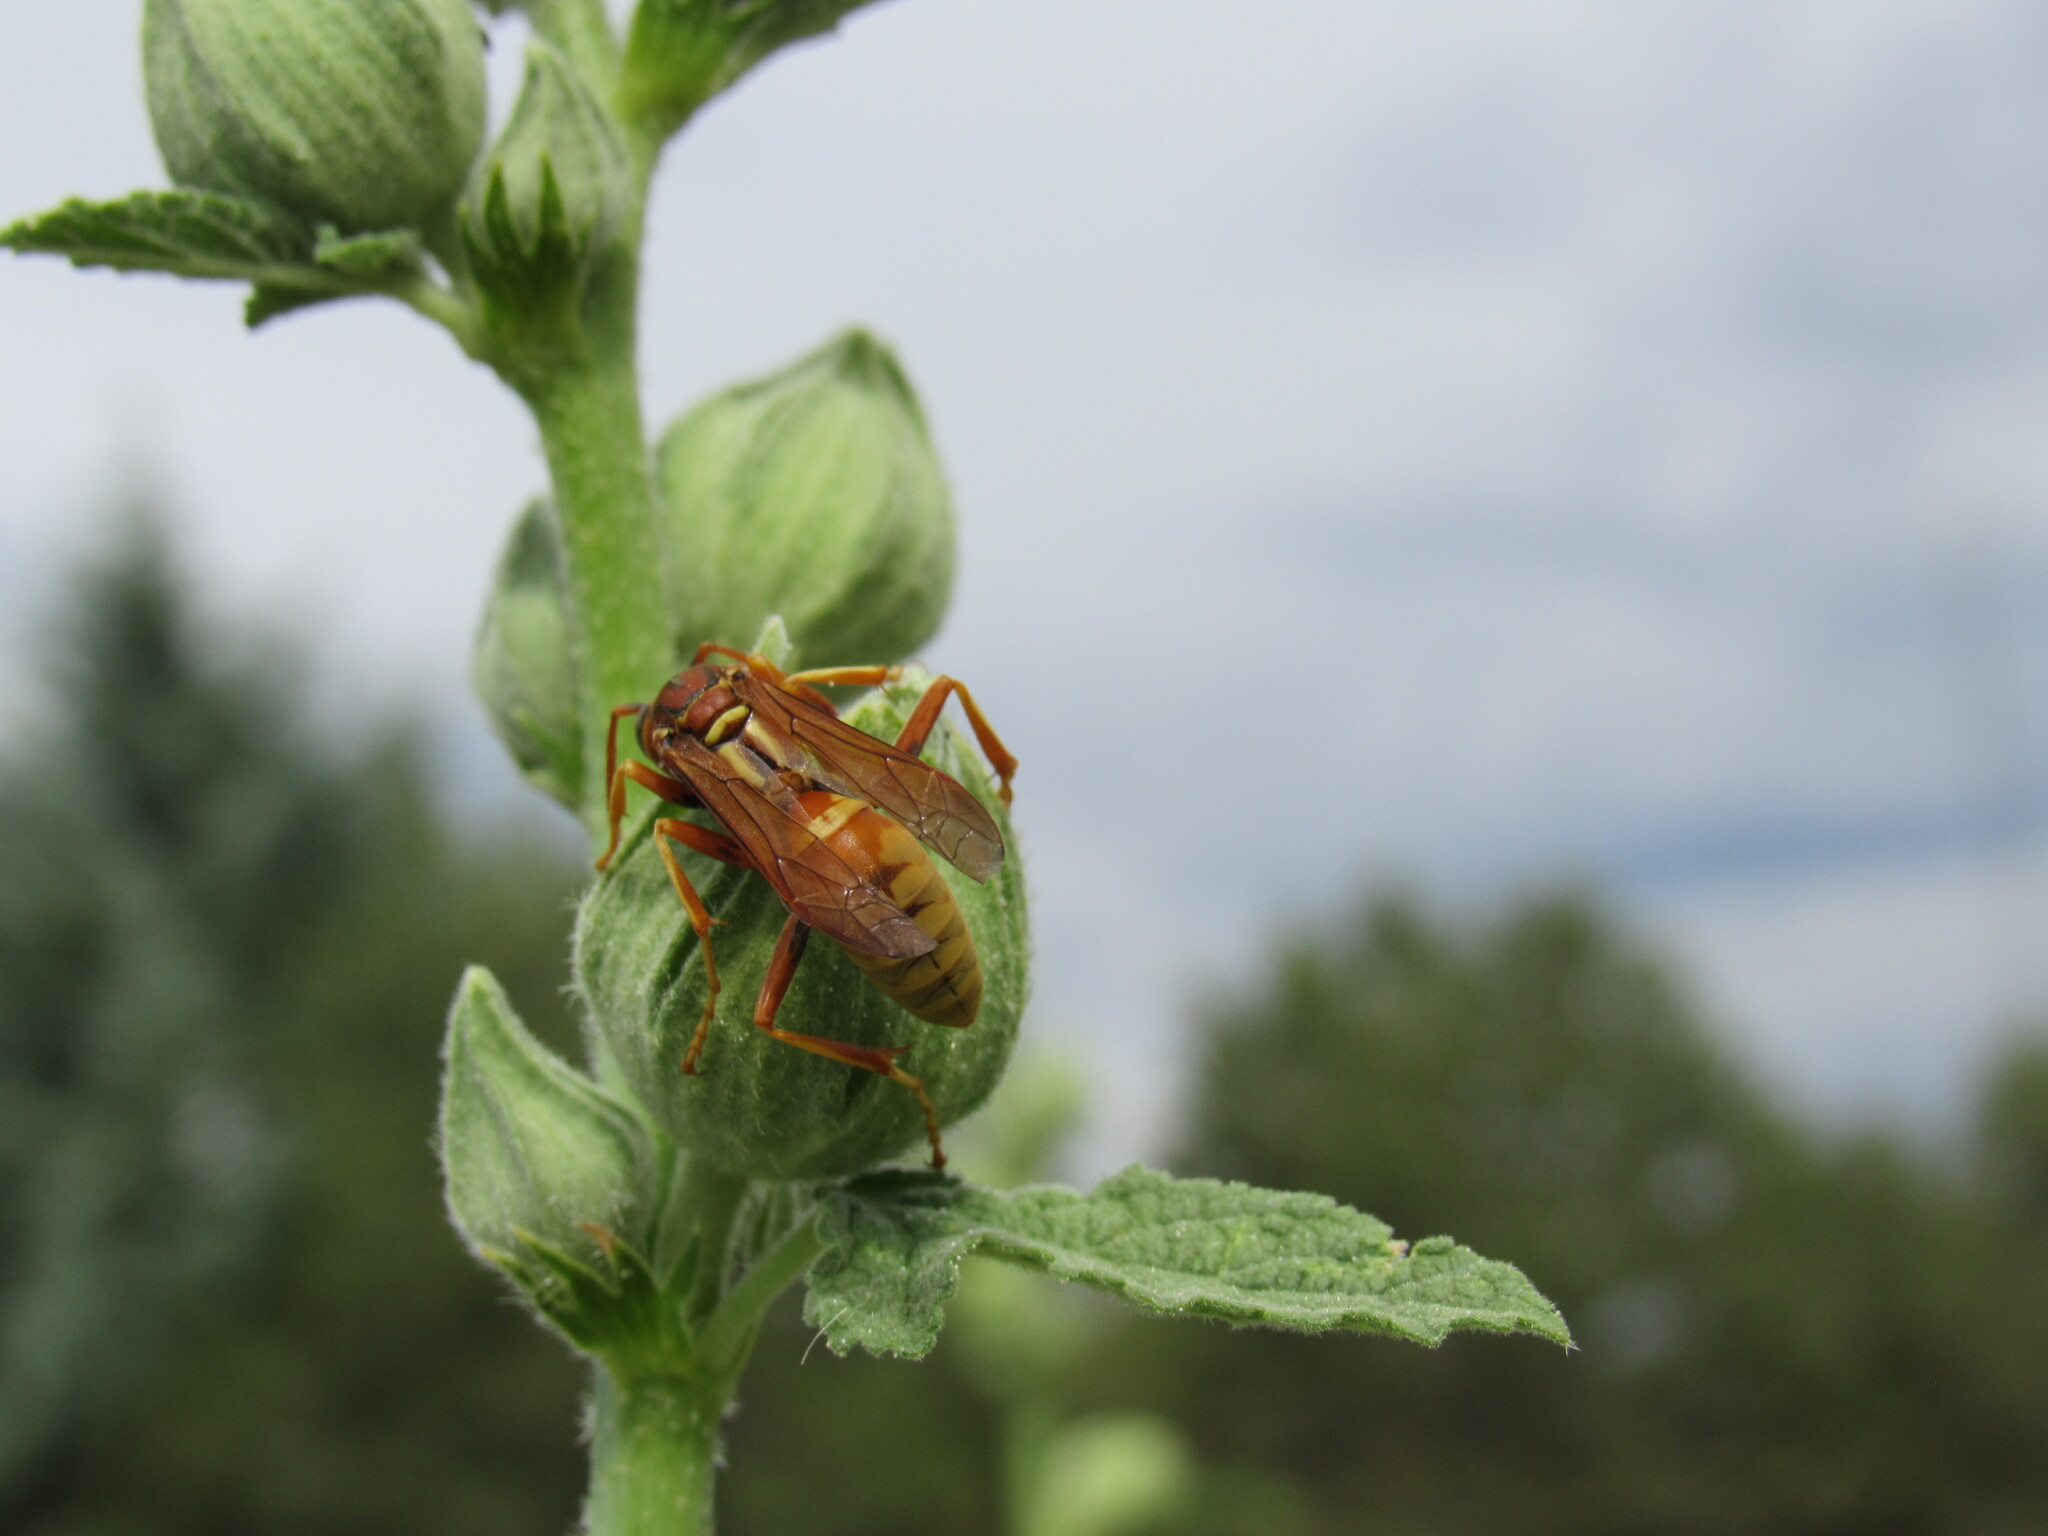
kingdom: Animalia
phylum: Arthropoda
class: Insecta
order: Hymenoptera
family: Eumenidae
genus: Polistes
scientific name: Polistes aurifer
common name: Paper wasp
